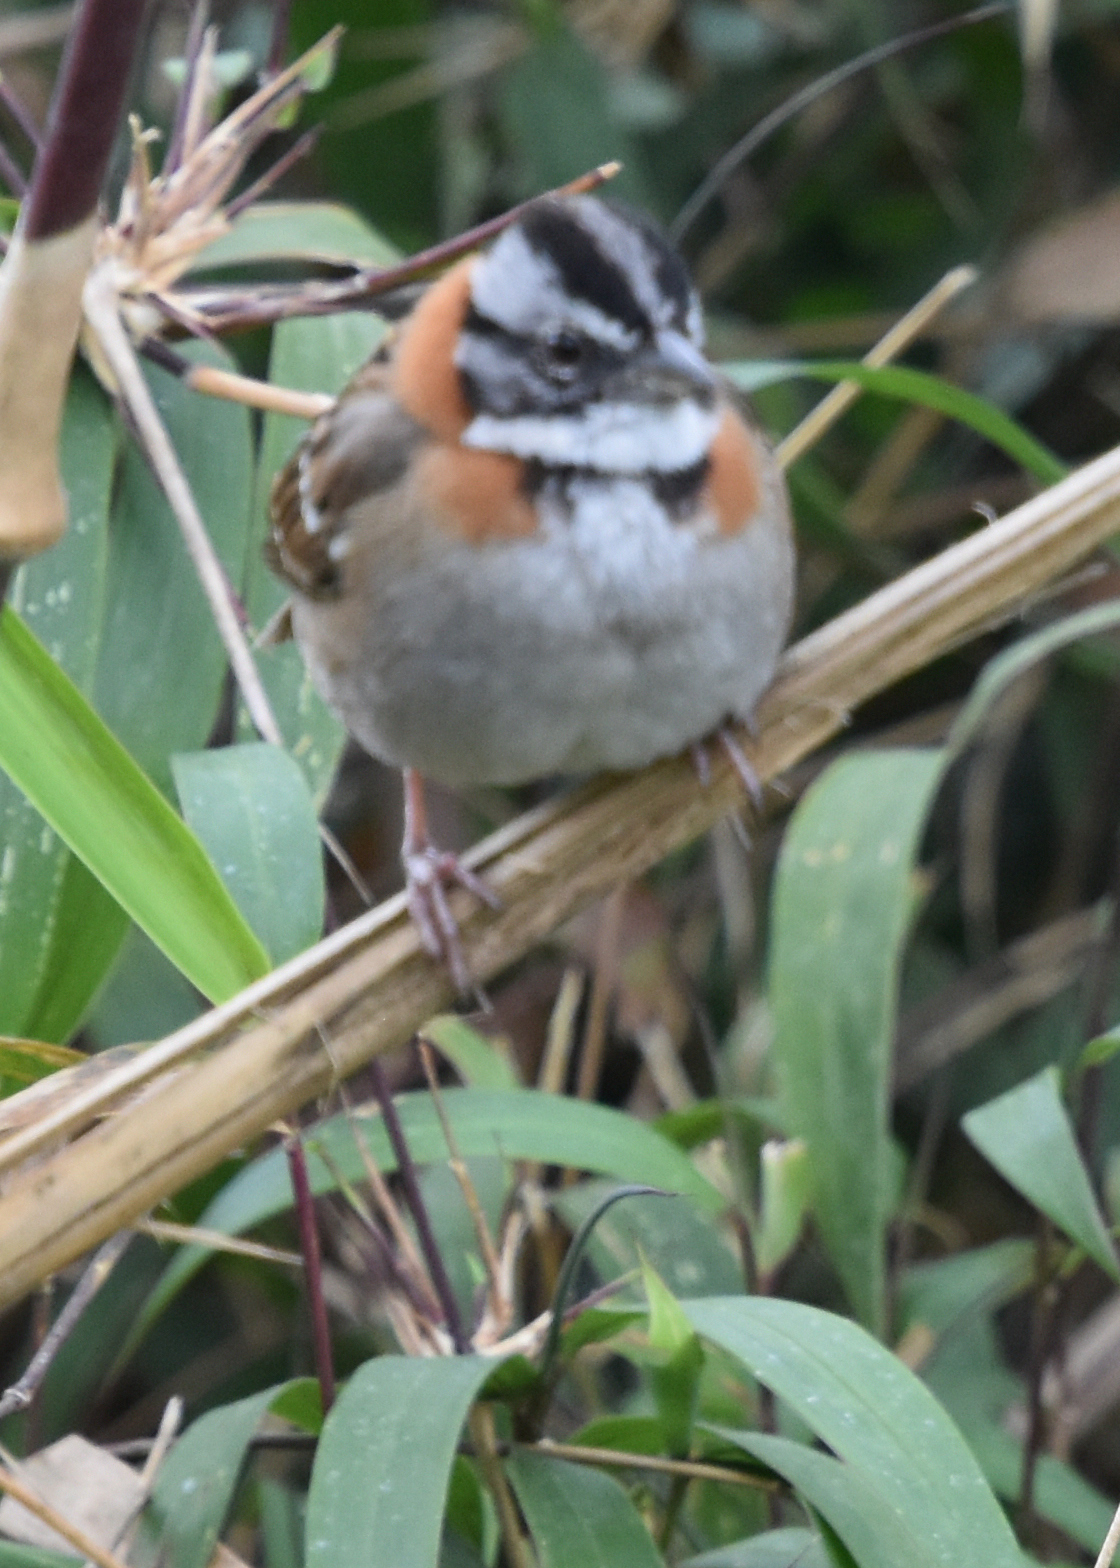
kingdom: Animalia
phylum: Chordata
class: Aves
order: Passeriformes
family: Passerellidae
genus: Zonotrichia
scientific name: Zonotrichia capensis
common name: Rufous-collared sparrow
